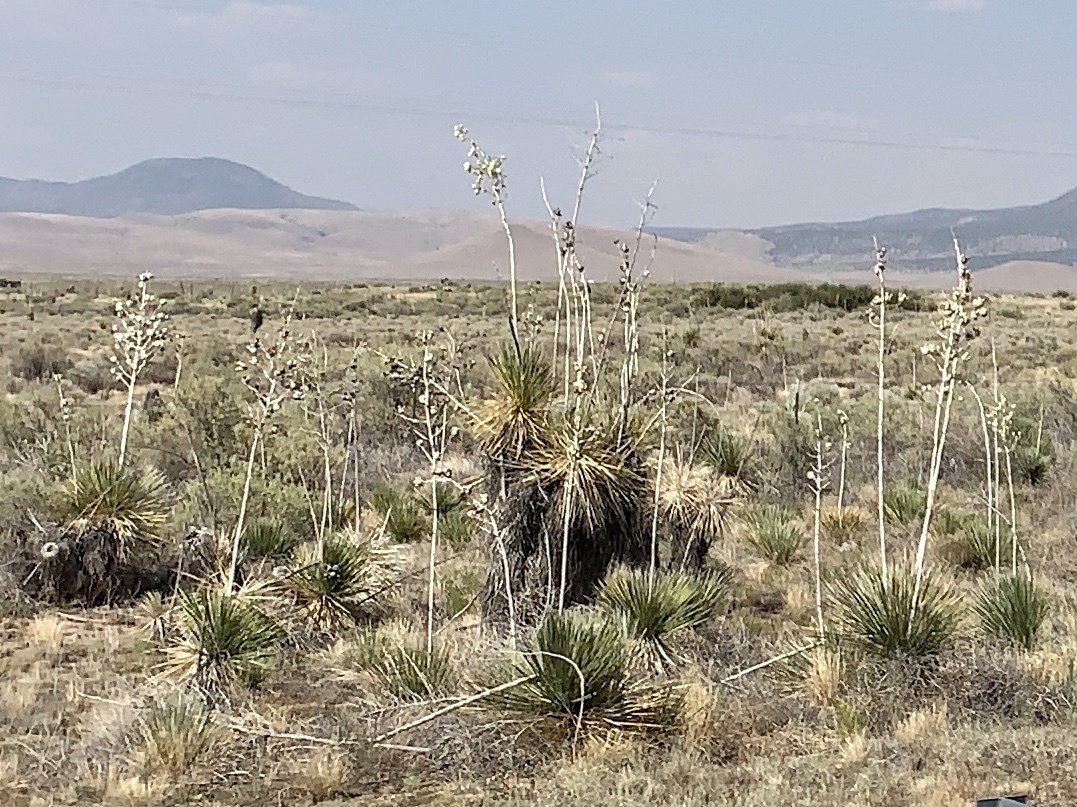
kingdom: Plantae
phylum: Tracheophyta
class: Liliopsida
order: Asparagales
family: Asparagaceae
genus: Yucca
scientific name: Yucca elata
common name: Palmella
